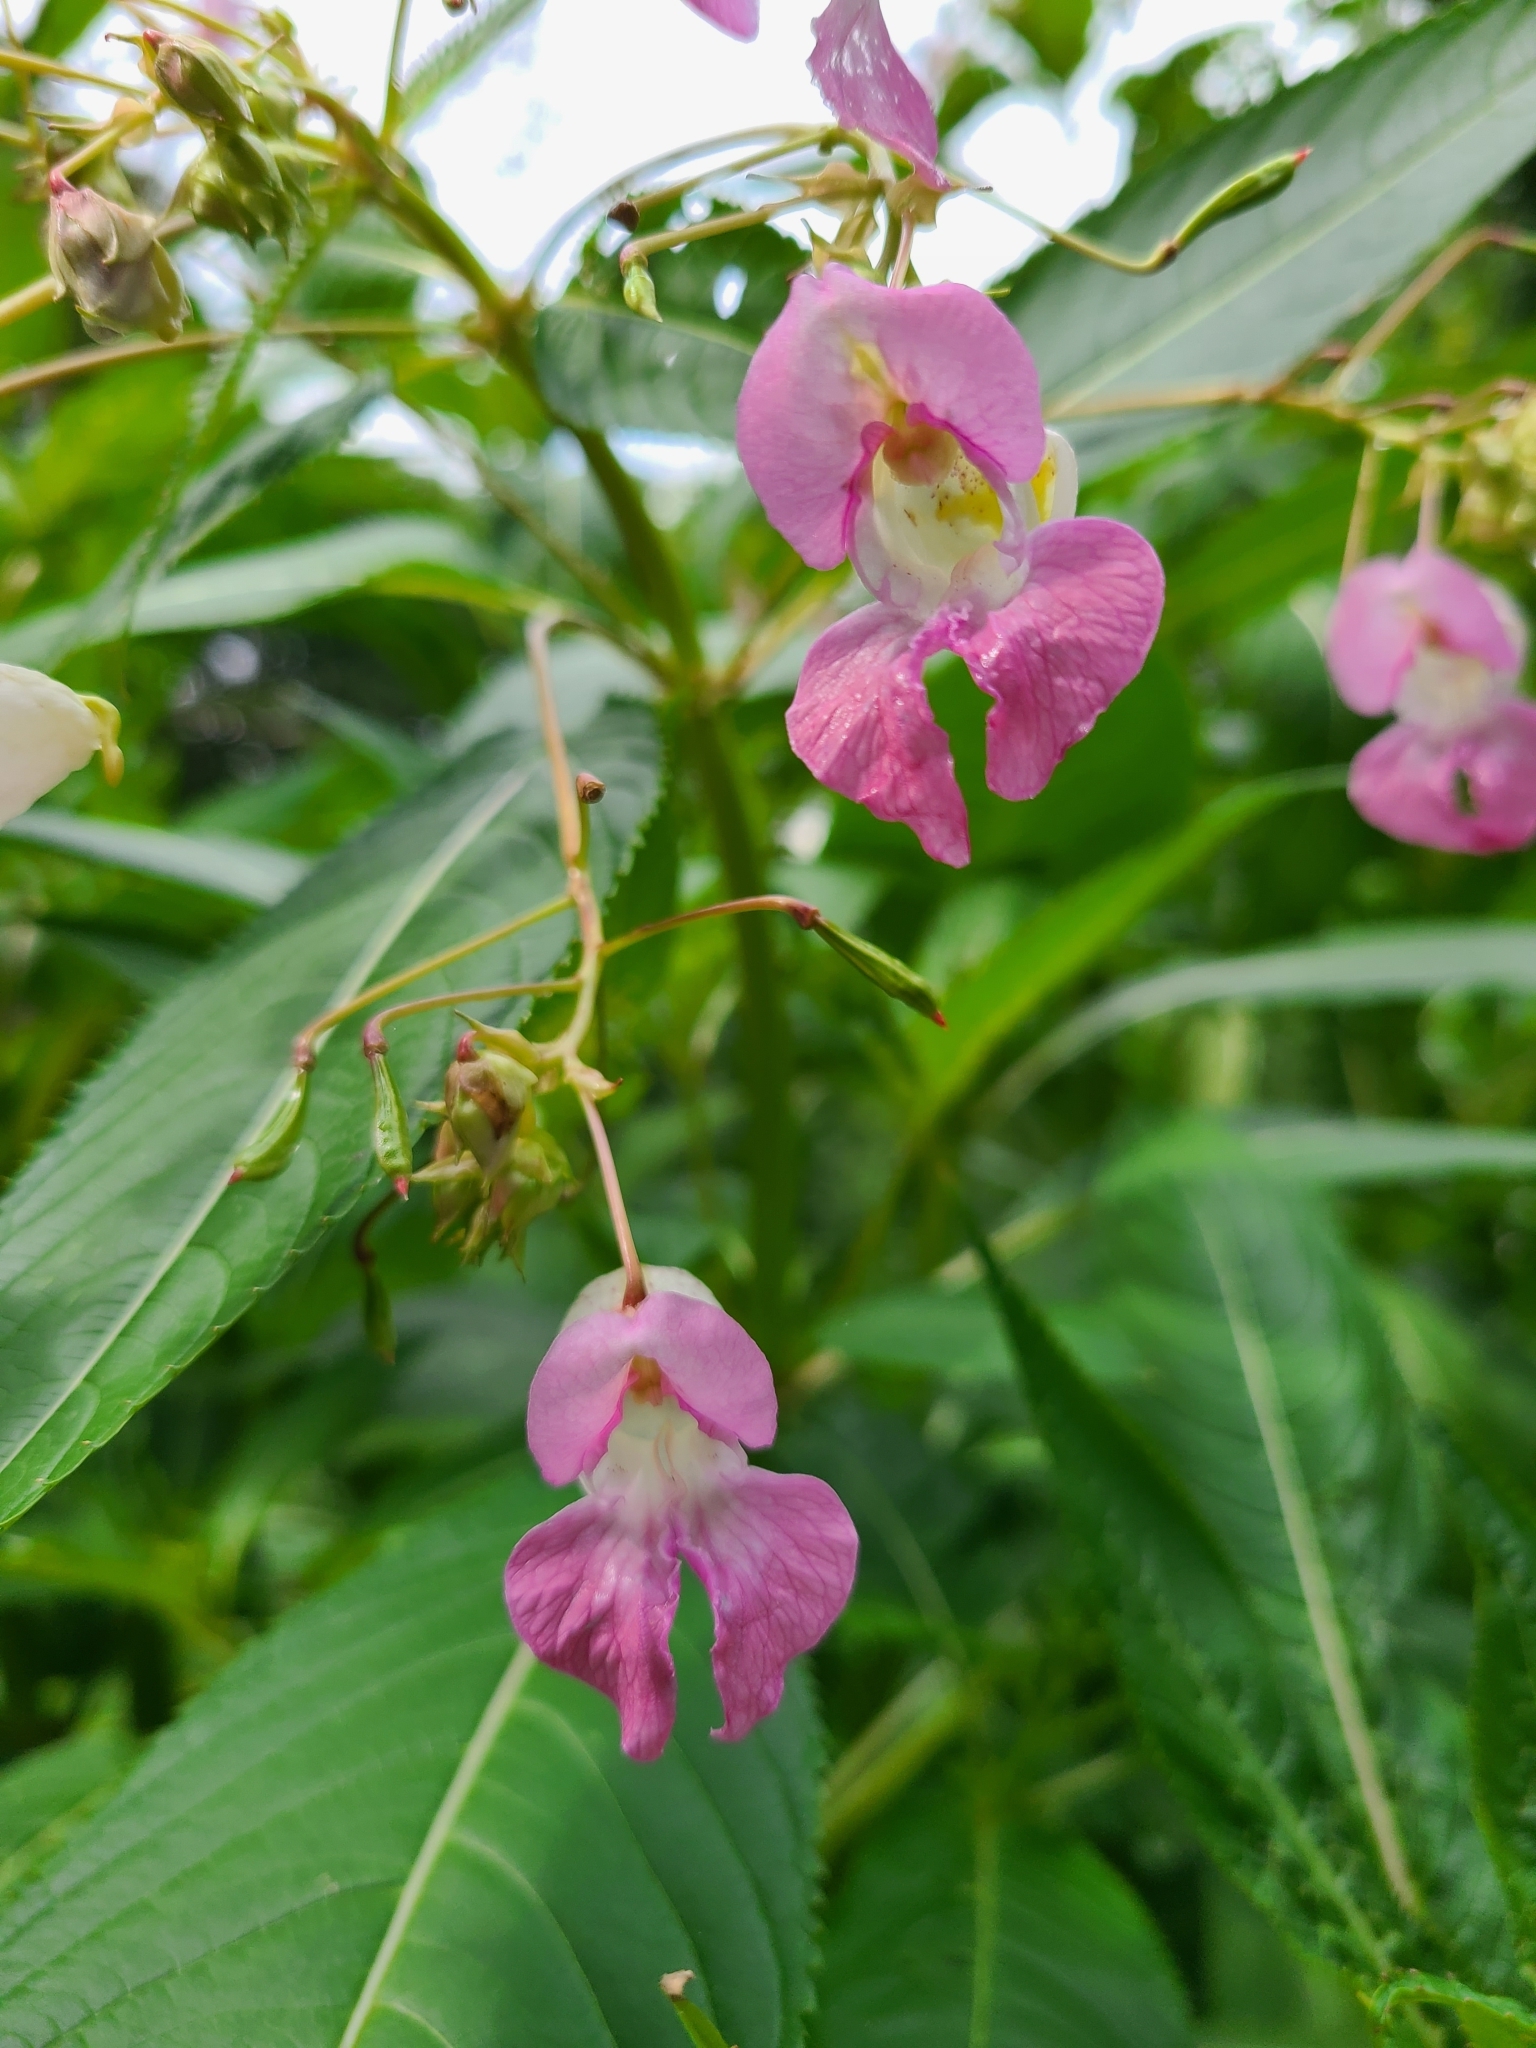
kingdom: Plantae
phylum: Tracheophyta
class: Magnoliopsida
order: Ericales
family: Balsaminaceae
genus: Impatiens
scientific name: Impatiens glandulifera
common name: Himalayan balsam
